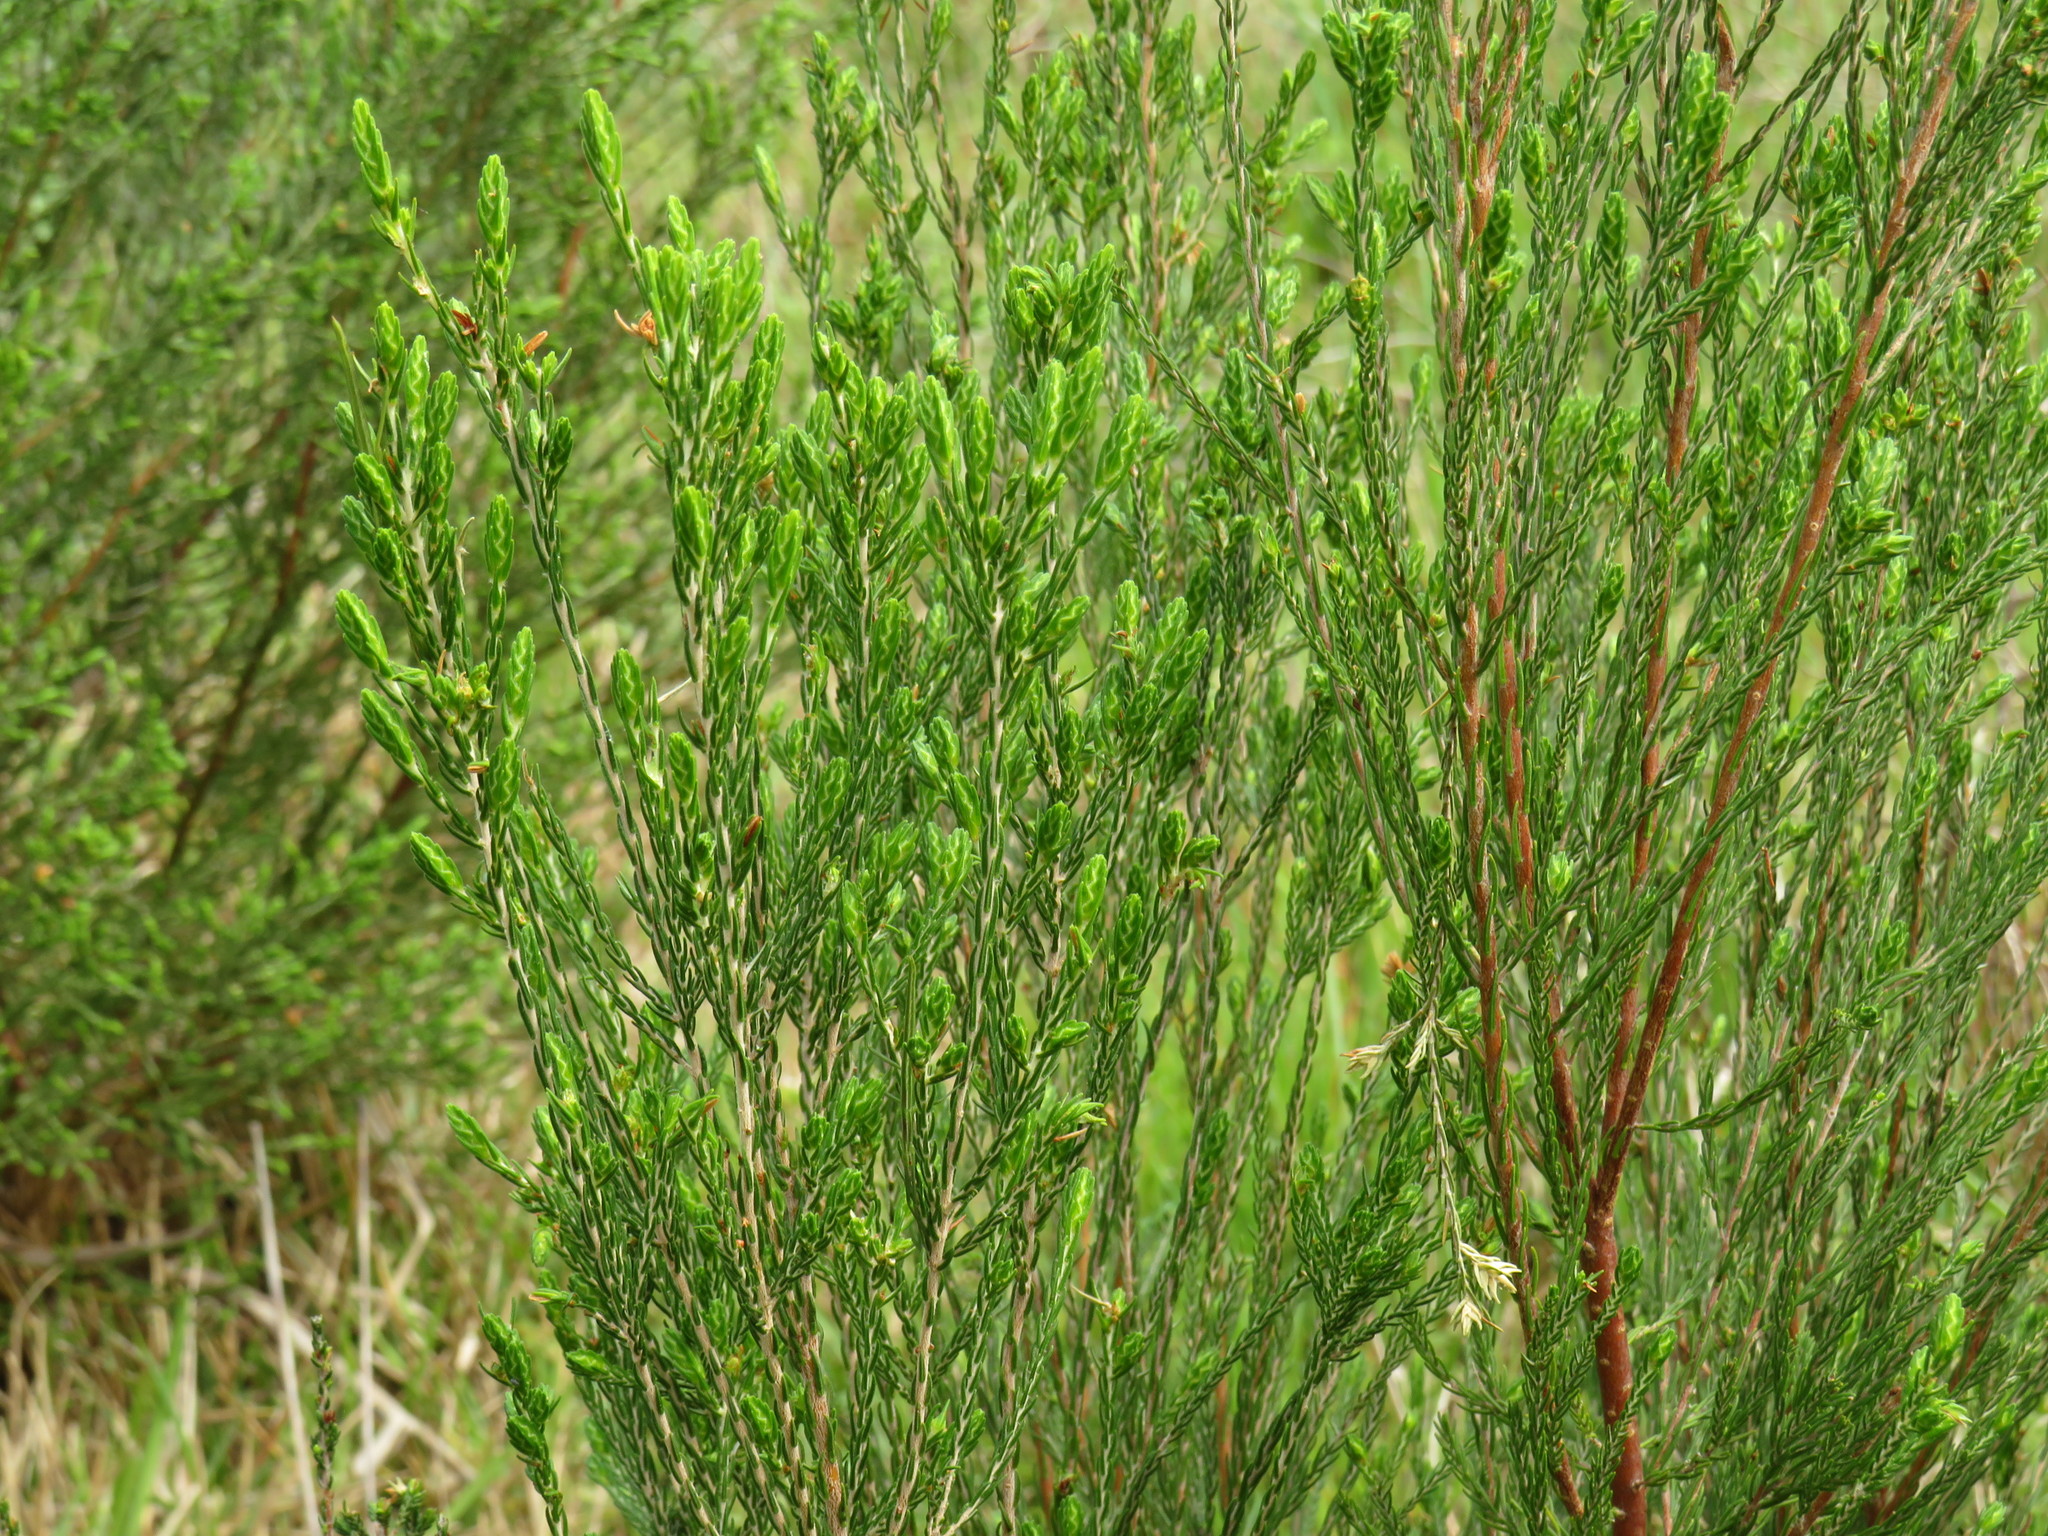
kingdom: Plantae
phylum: Tracheophyta
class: Magnoliopsida
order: Malvales
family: Thymelaeaceae
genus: Passerina
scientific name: Passerina corymbosa
